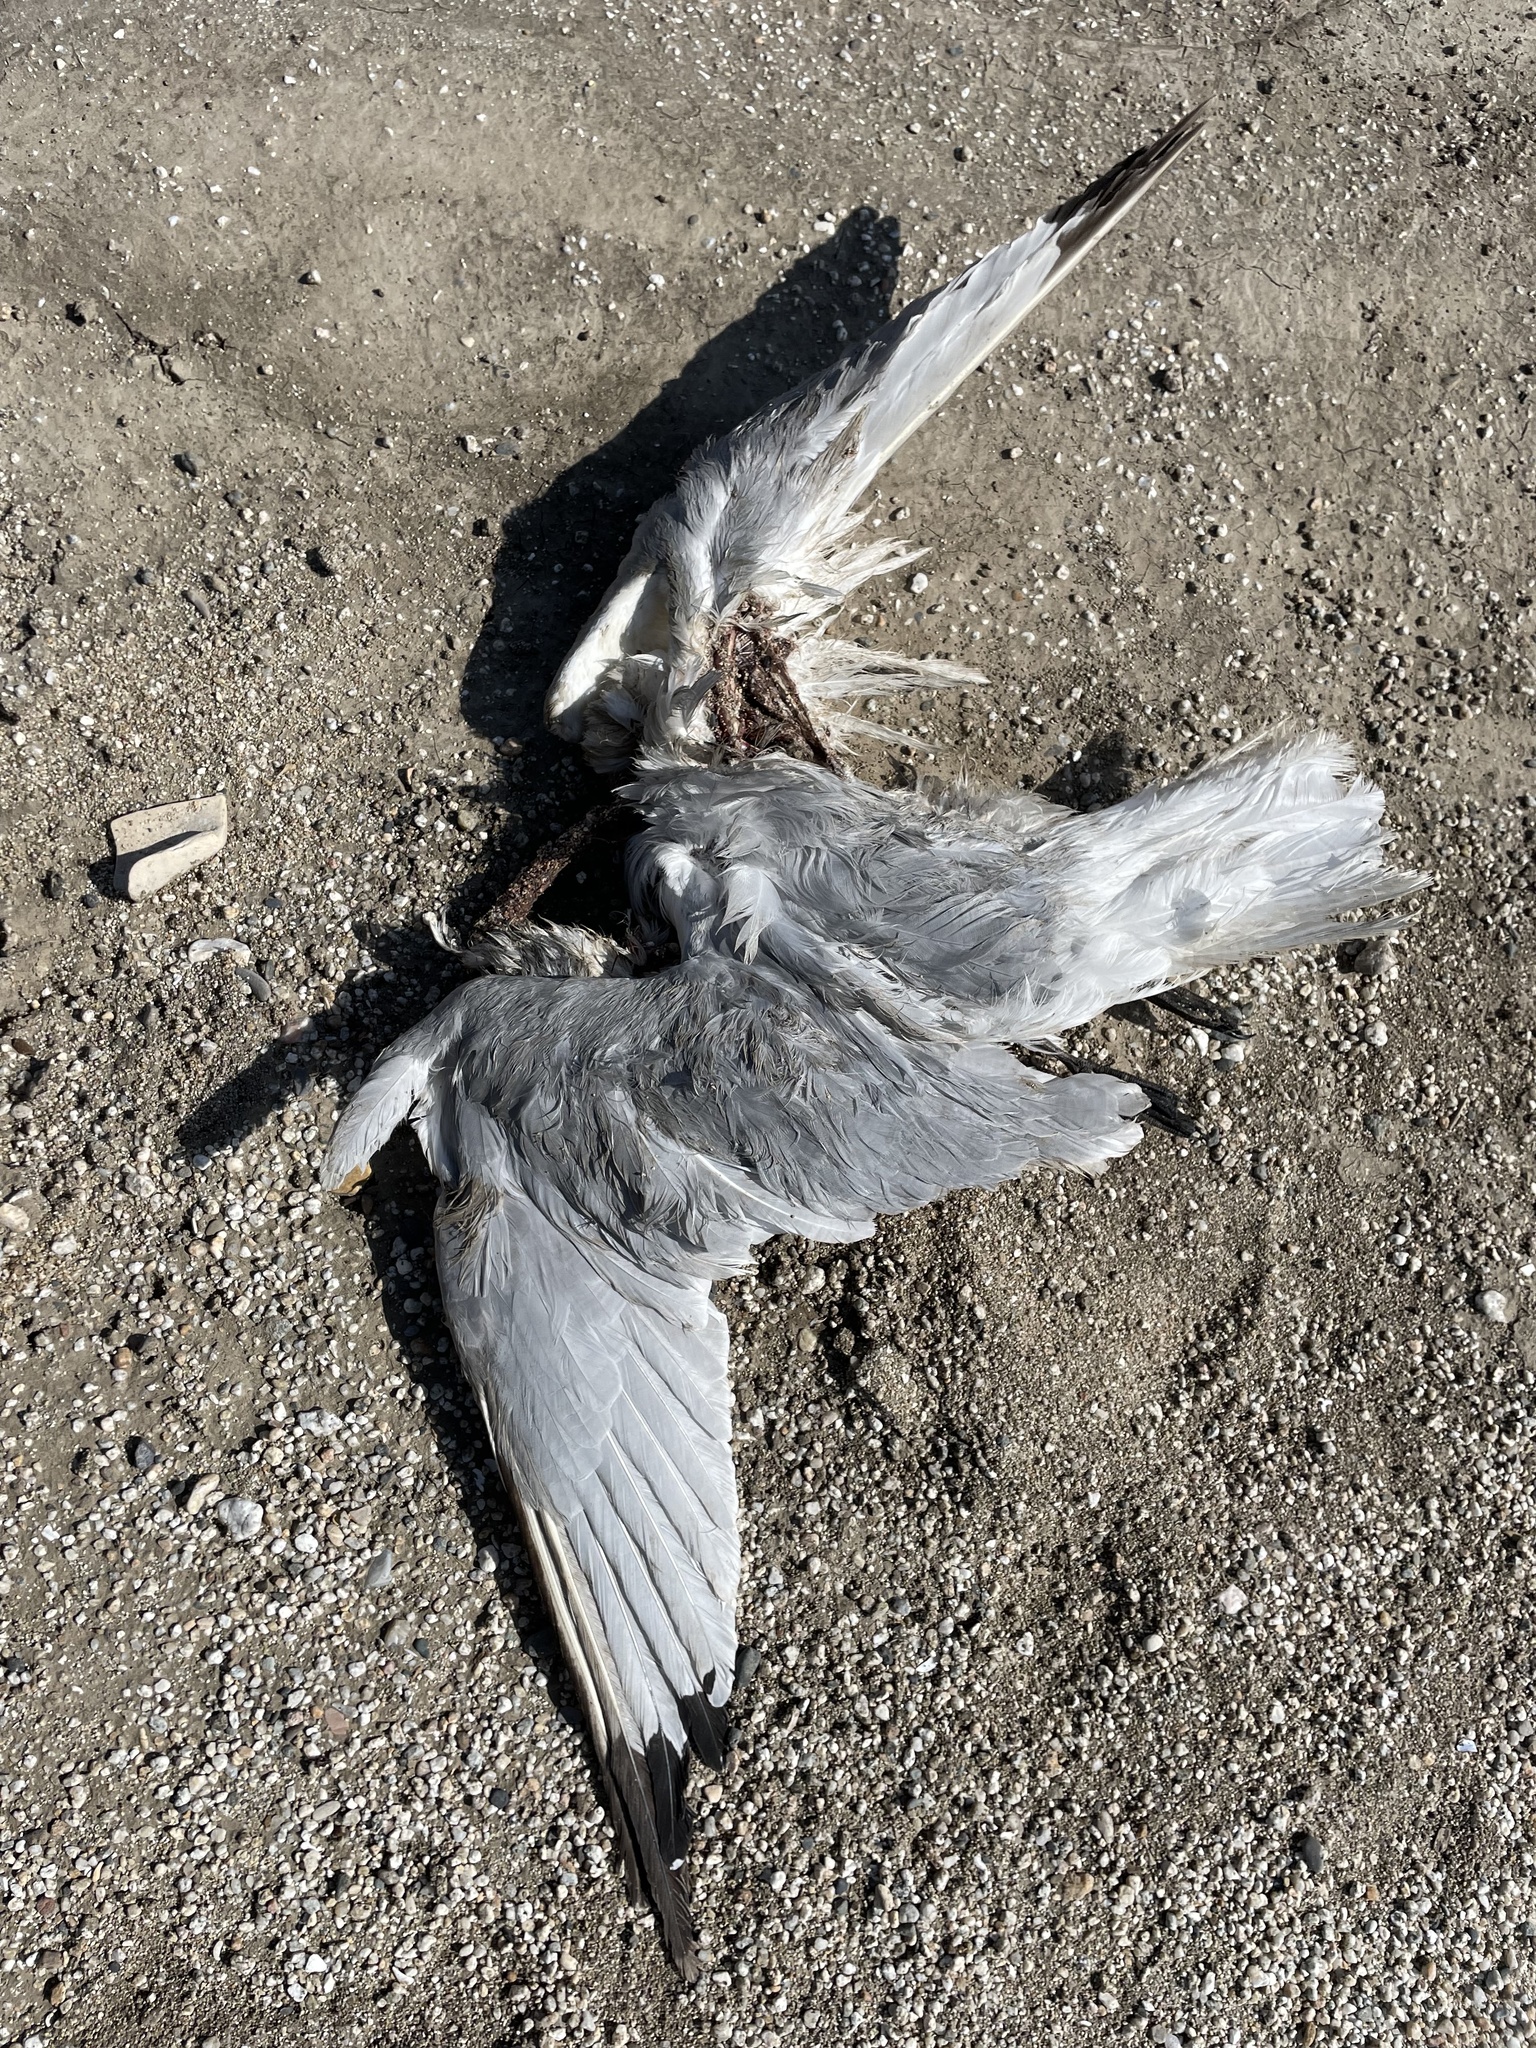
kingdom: Animalia
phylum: Chordata
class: Aves
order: Charadriiformes
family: Laridae
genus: Rissa
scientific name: Rissa tridactyla
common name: Black-legged kittiwake
